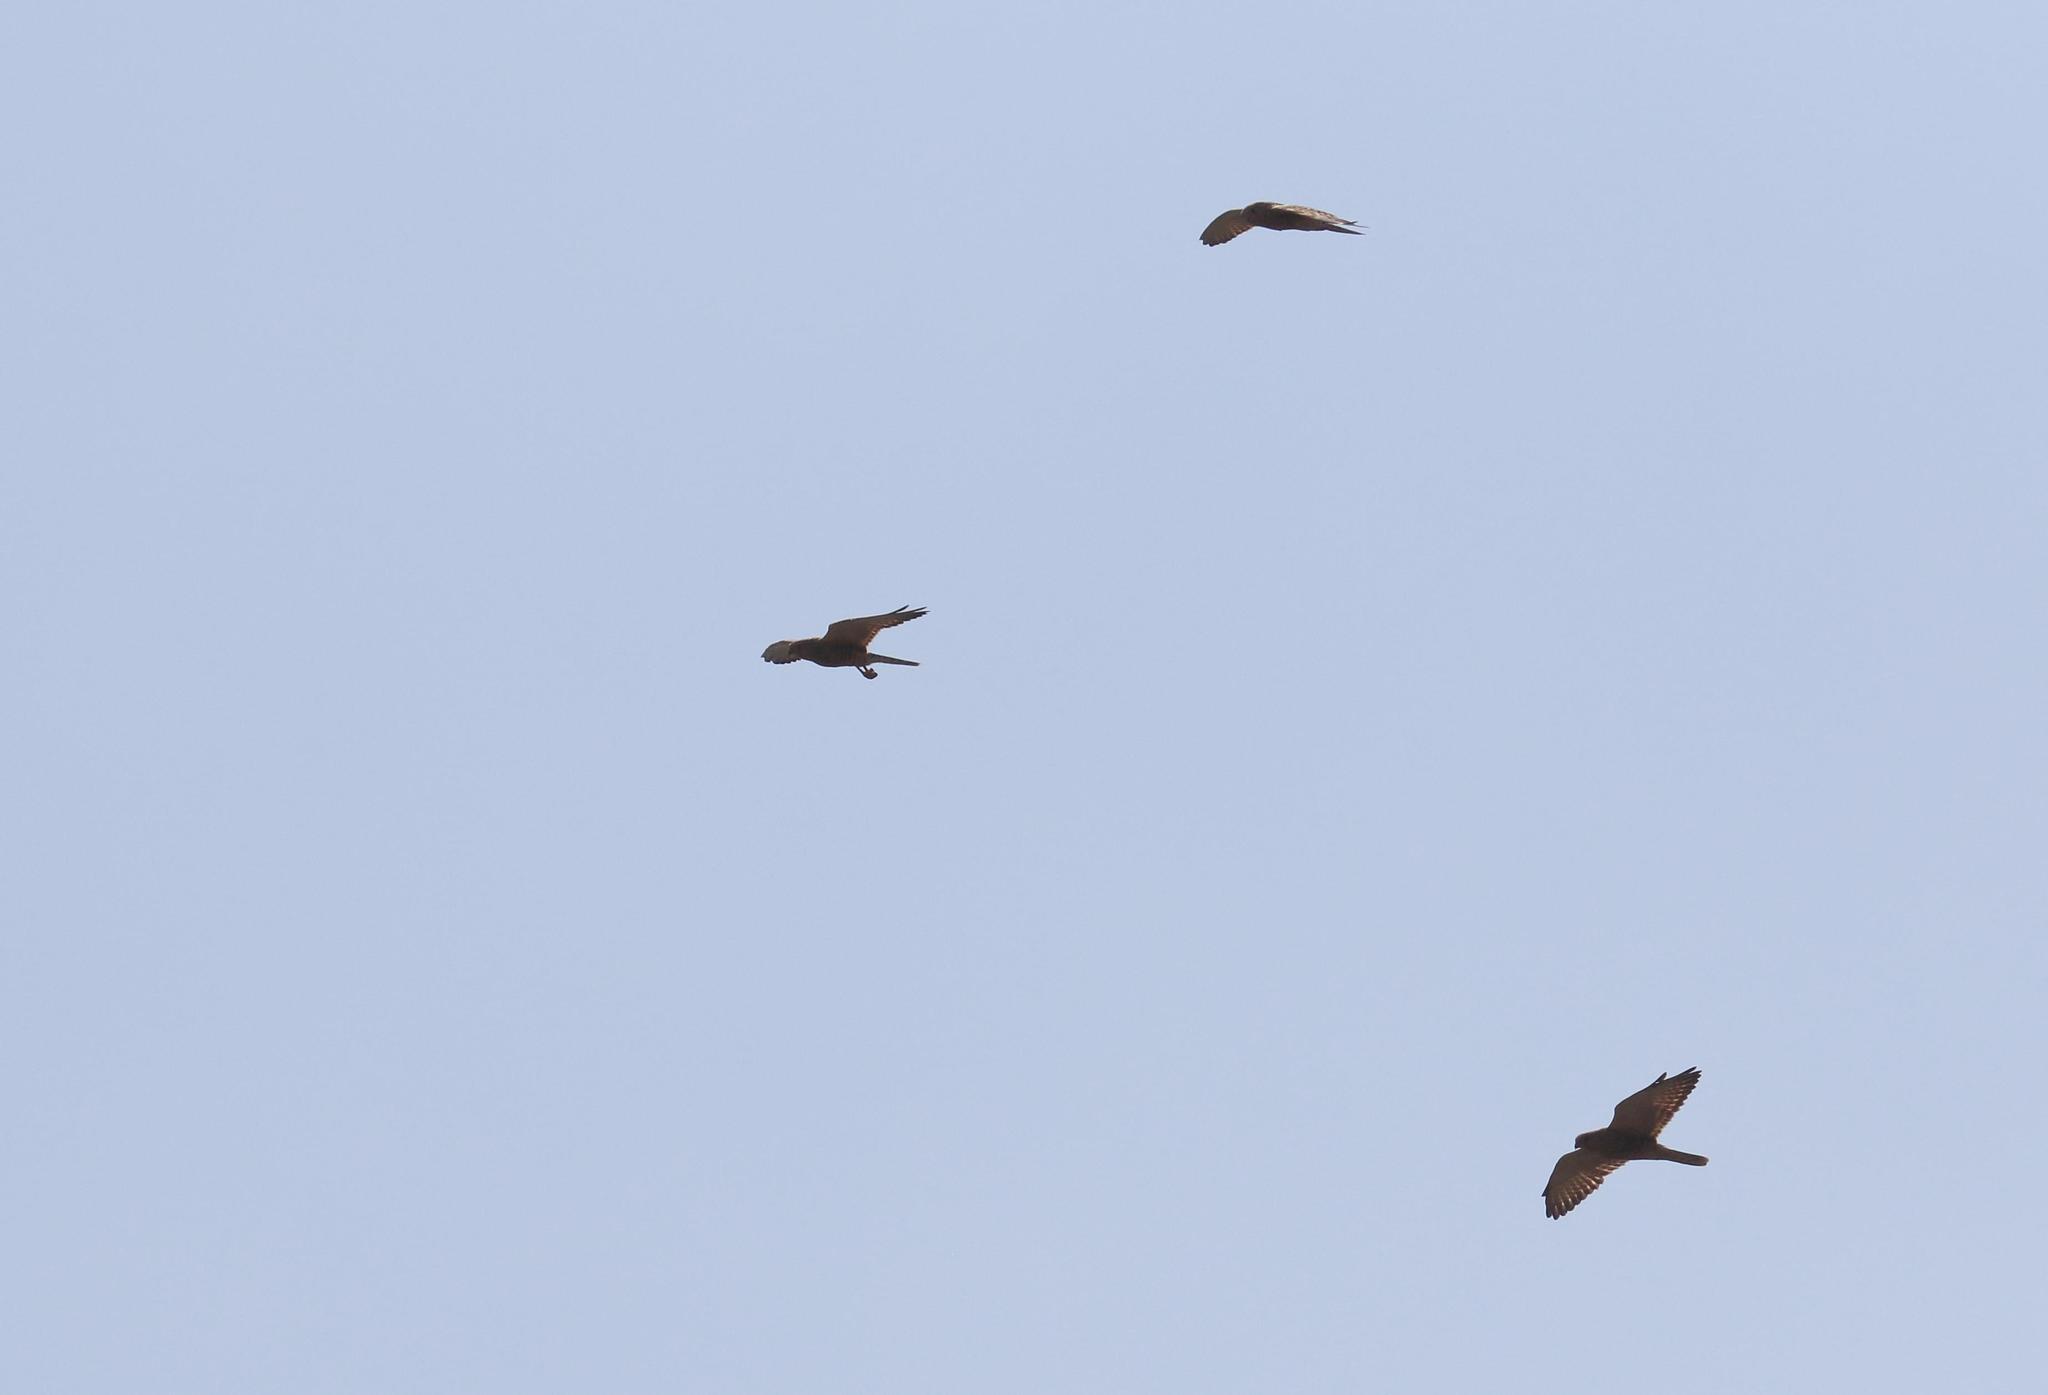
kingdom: Animalia
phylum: Chordata
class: Aves
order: Falconiformes
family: Falconidae
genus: Falco
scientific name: Falco rupicoloides
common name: Greater kestrel
